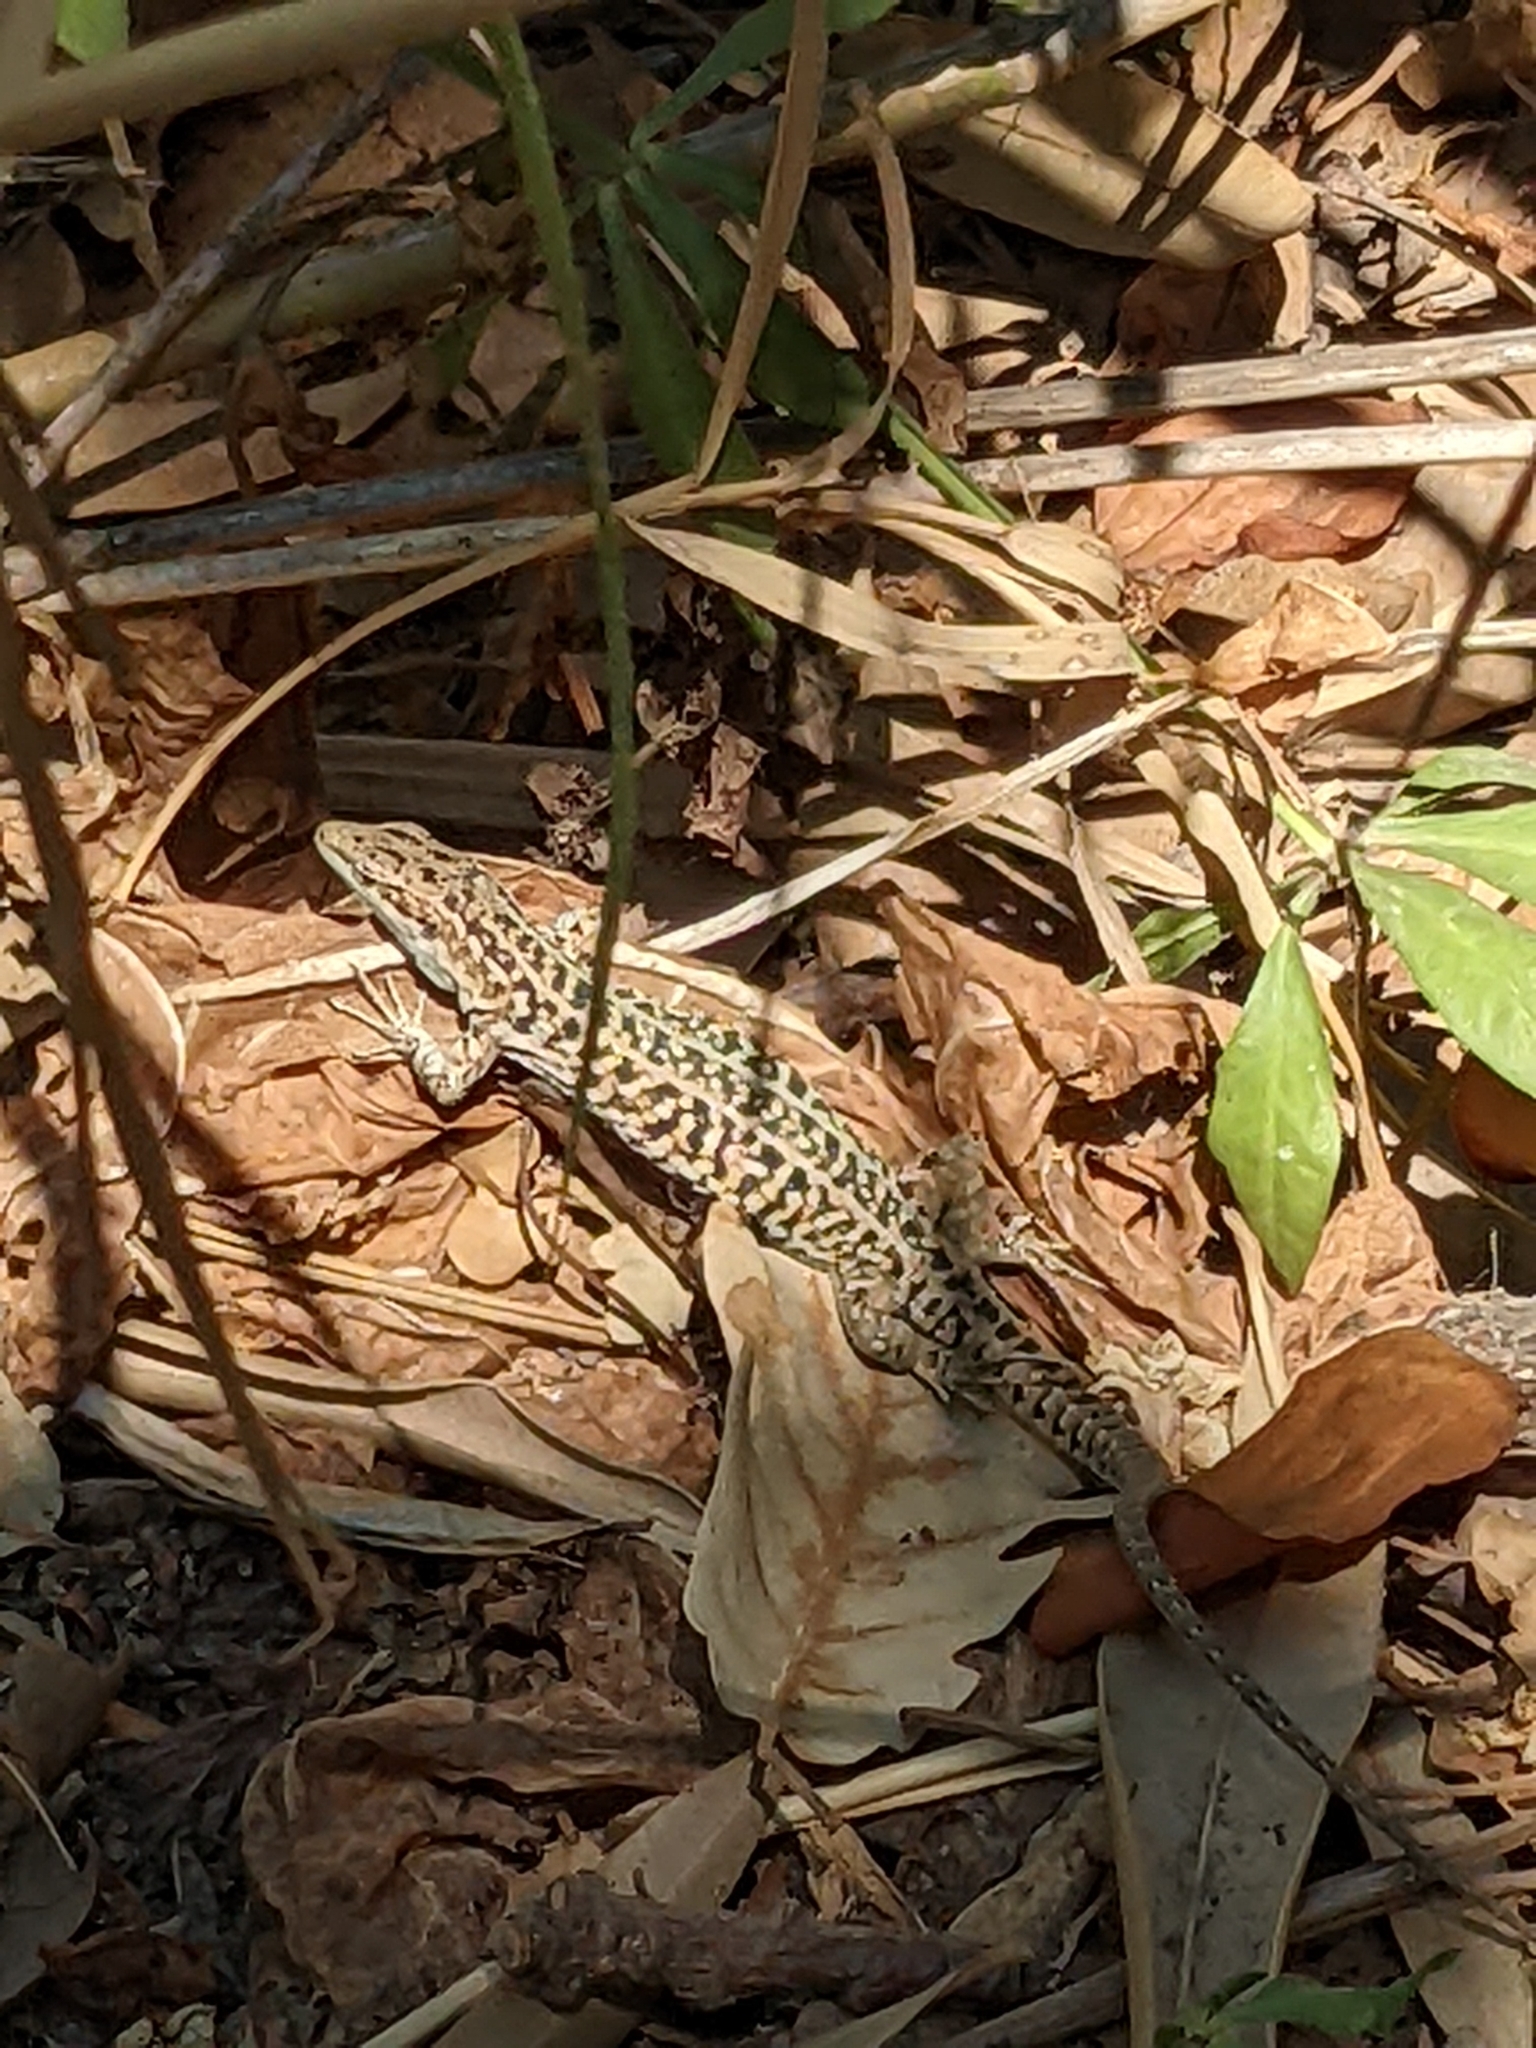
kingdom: Animalia
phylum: Chordata
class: Squamata
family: Lacertidae
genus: Podarcis
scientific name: Podarcis siculus
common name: Italian wall lizard
